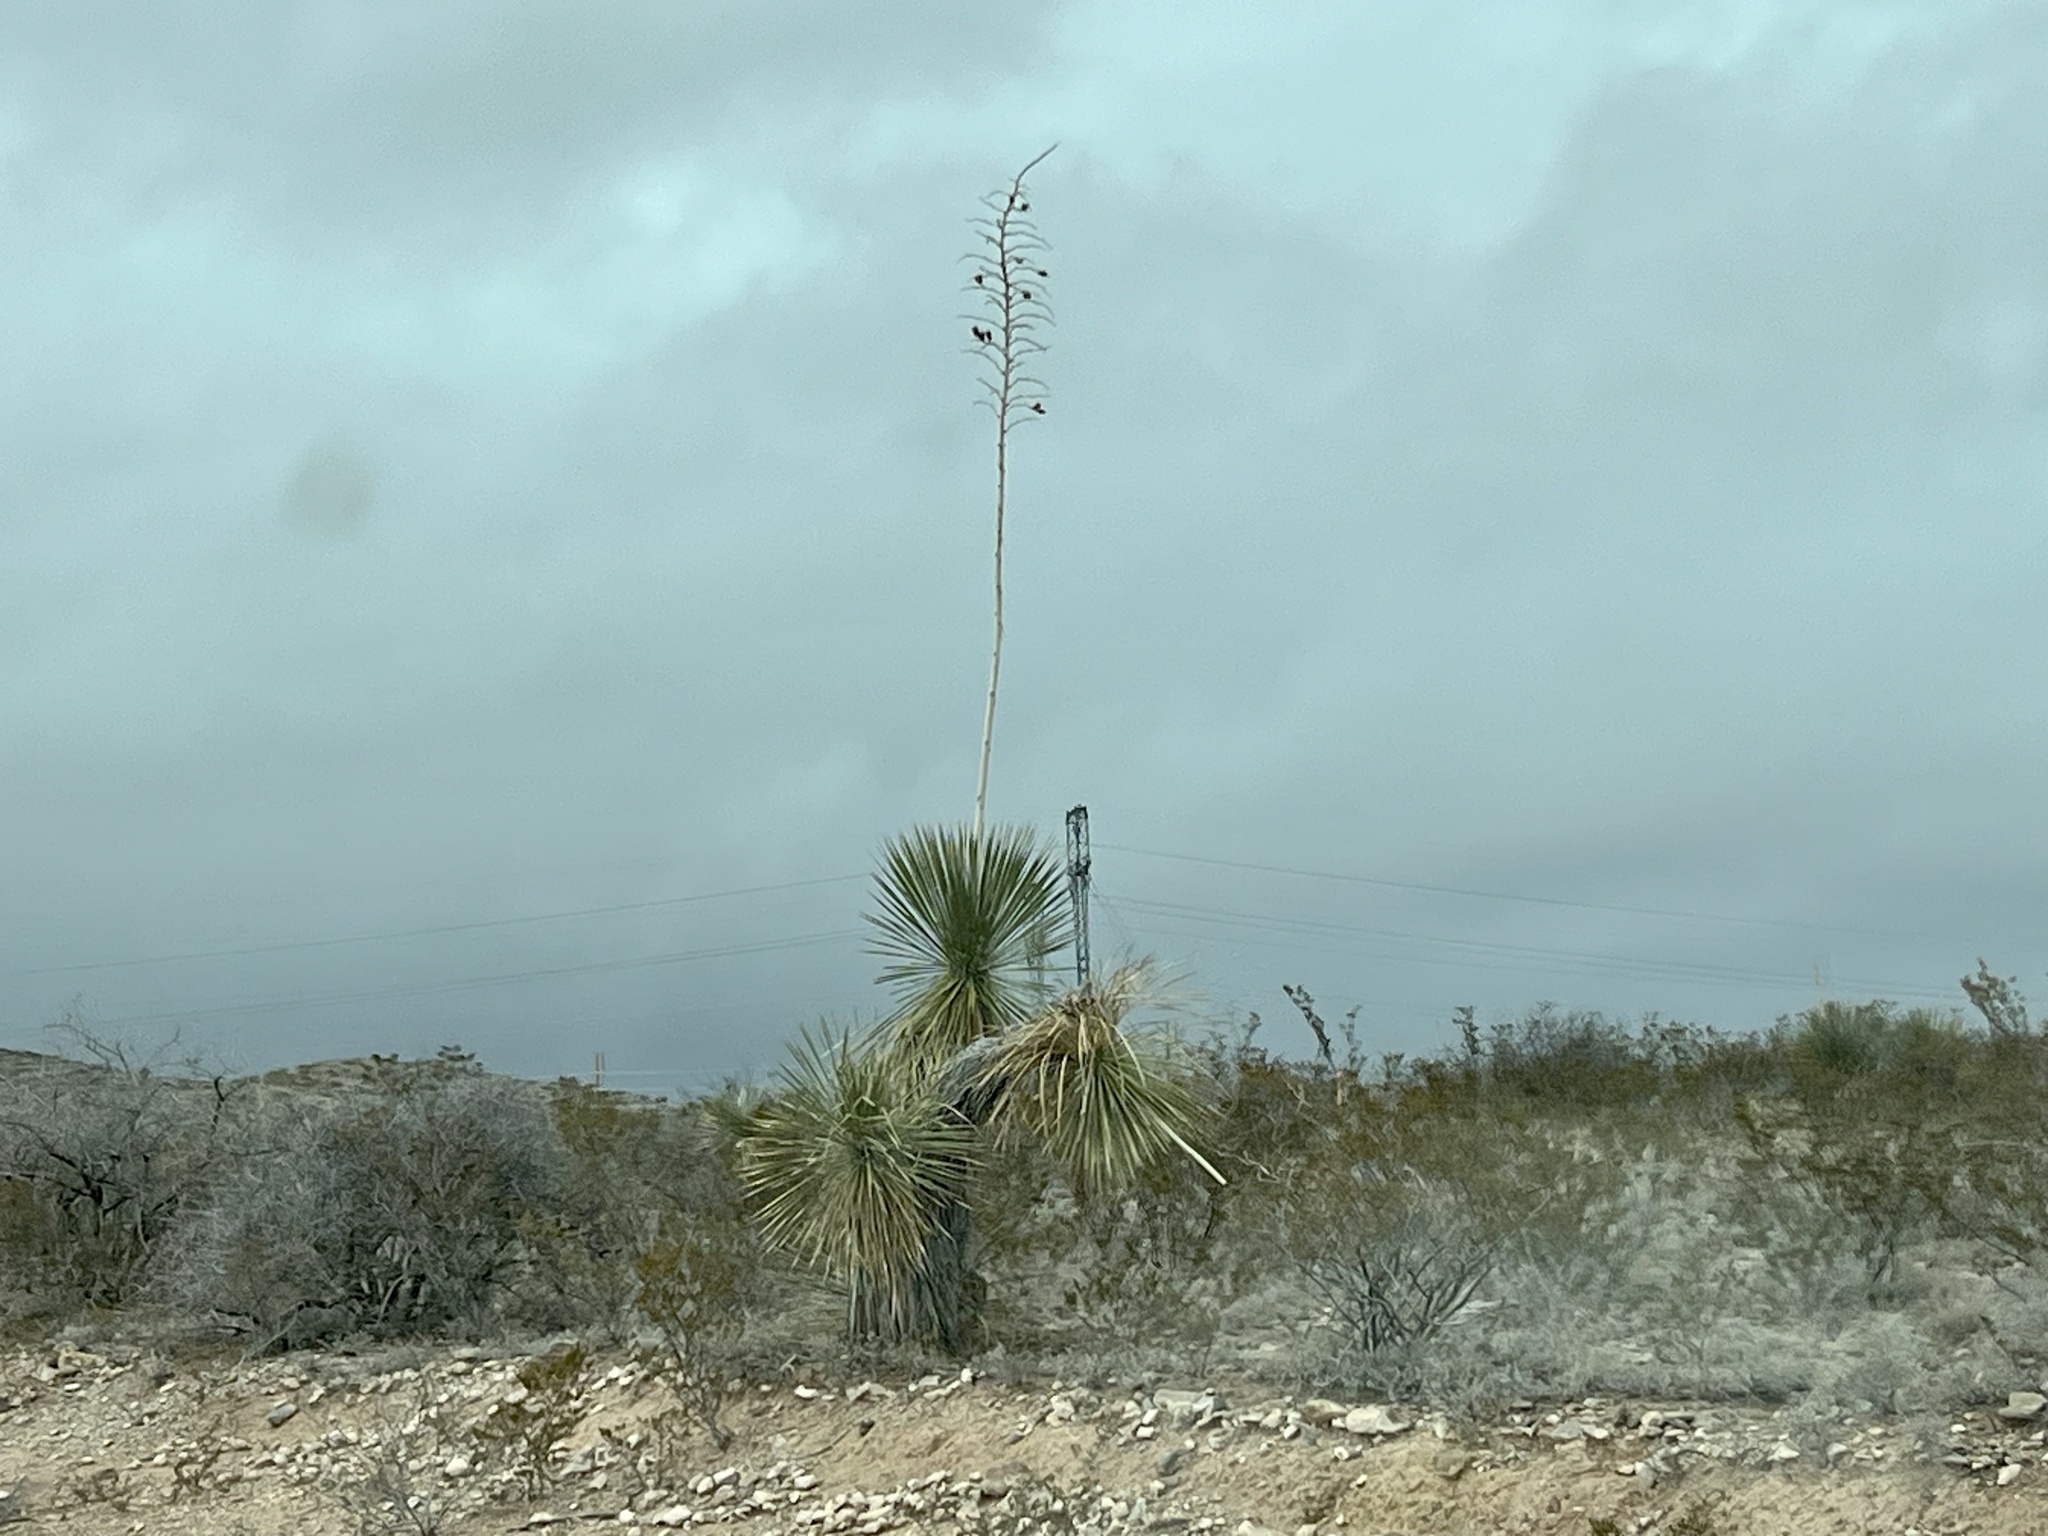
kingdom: Plantae
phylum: Tracheophyta
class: Liliopsida
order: Asparagales
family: Asparagaceae
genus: Yucca
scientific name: Yucca elata
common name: Palmella
